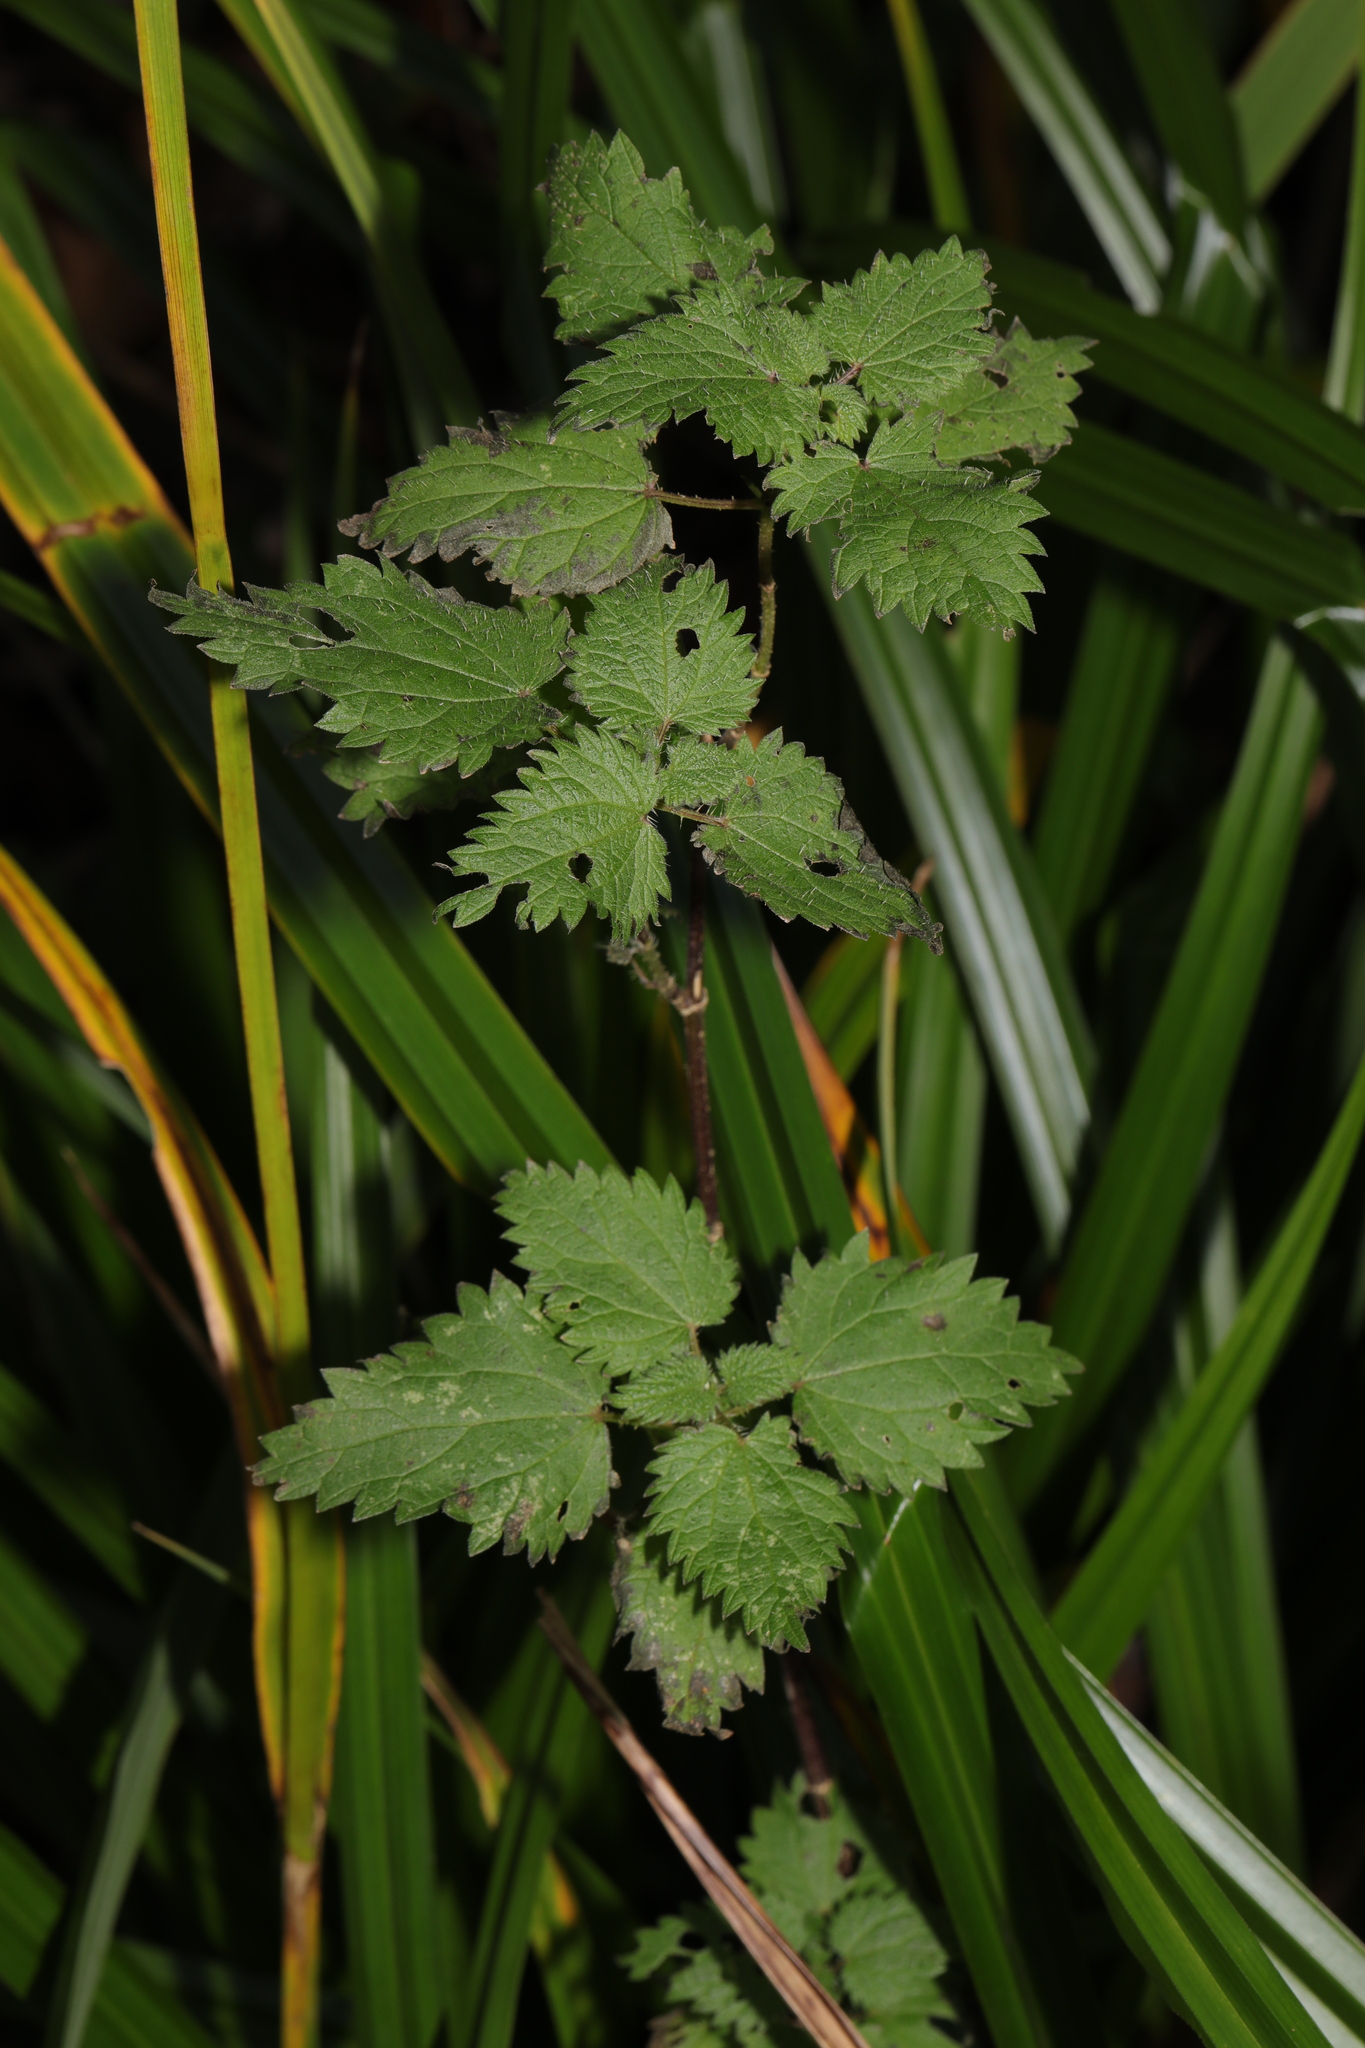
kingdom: Plantae
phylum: Tracheophyta
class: Magnoliopsida
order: Rosales
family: Urticaceae
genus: Urtica
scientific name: Urtica dioica
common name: Common nettle
